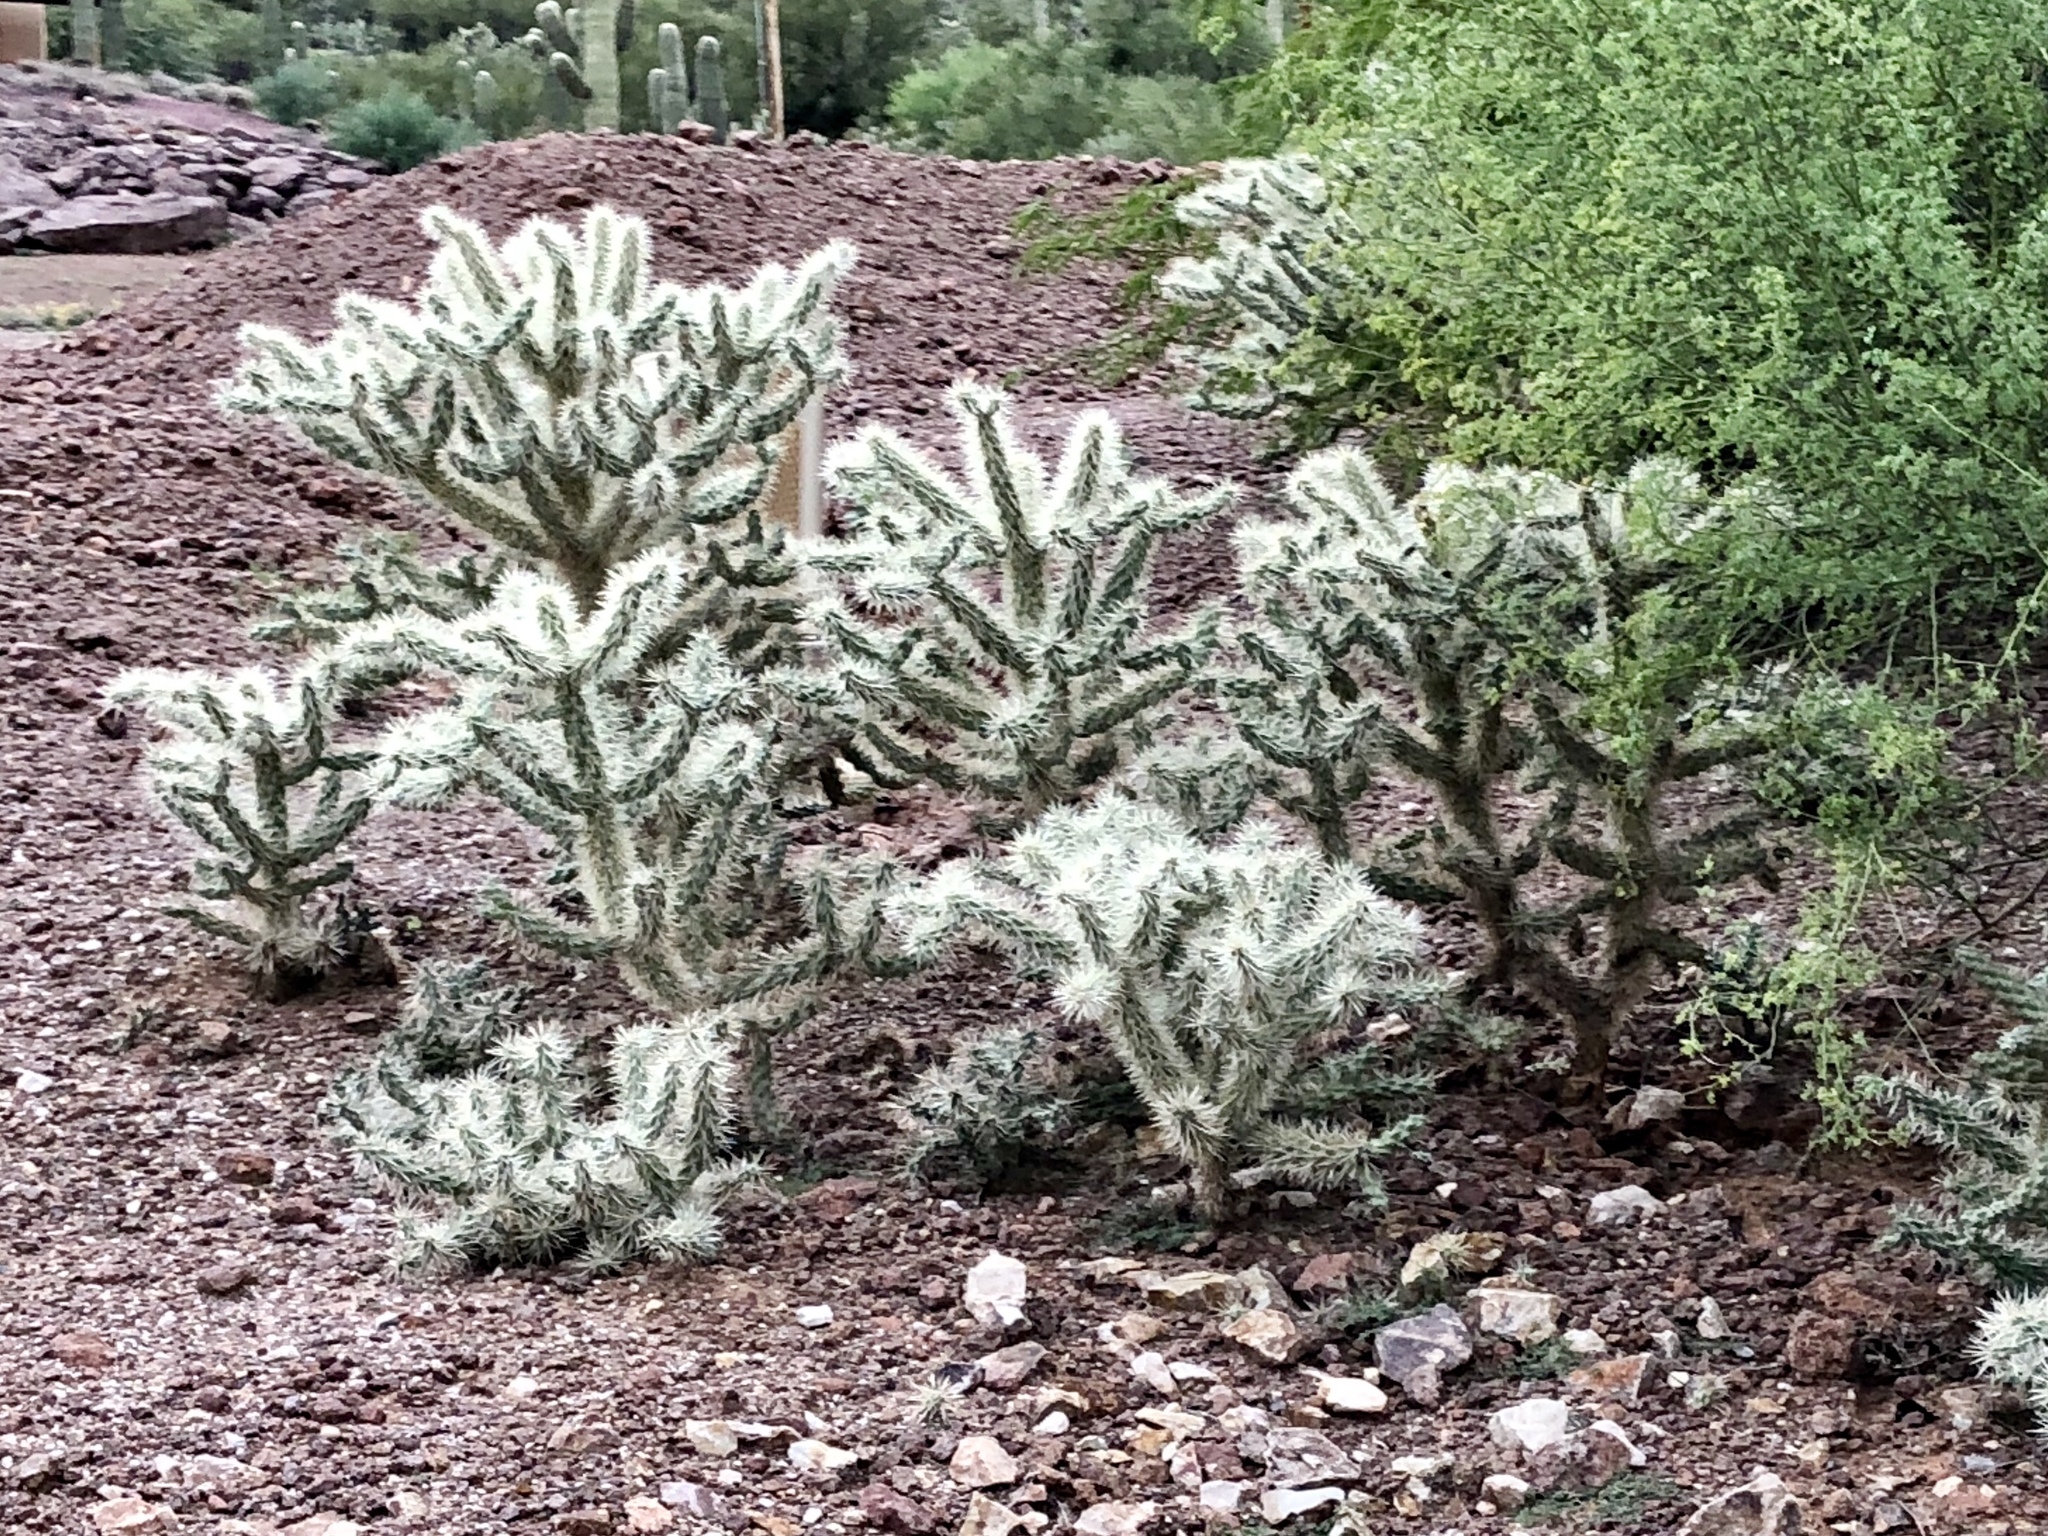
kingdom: Plantae
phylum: Tracheophyta
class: Magnoliopsida
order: Caryophyllales
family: Cactaceae
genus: Cylindropuntia
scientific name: Cylindropuntia fulgida
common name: Jumping cholla
